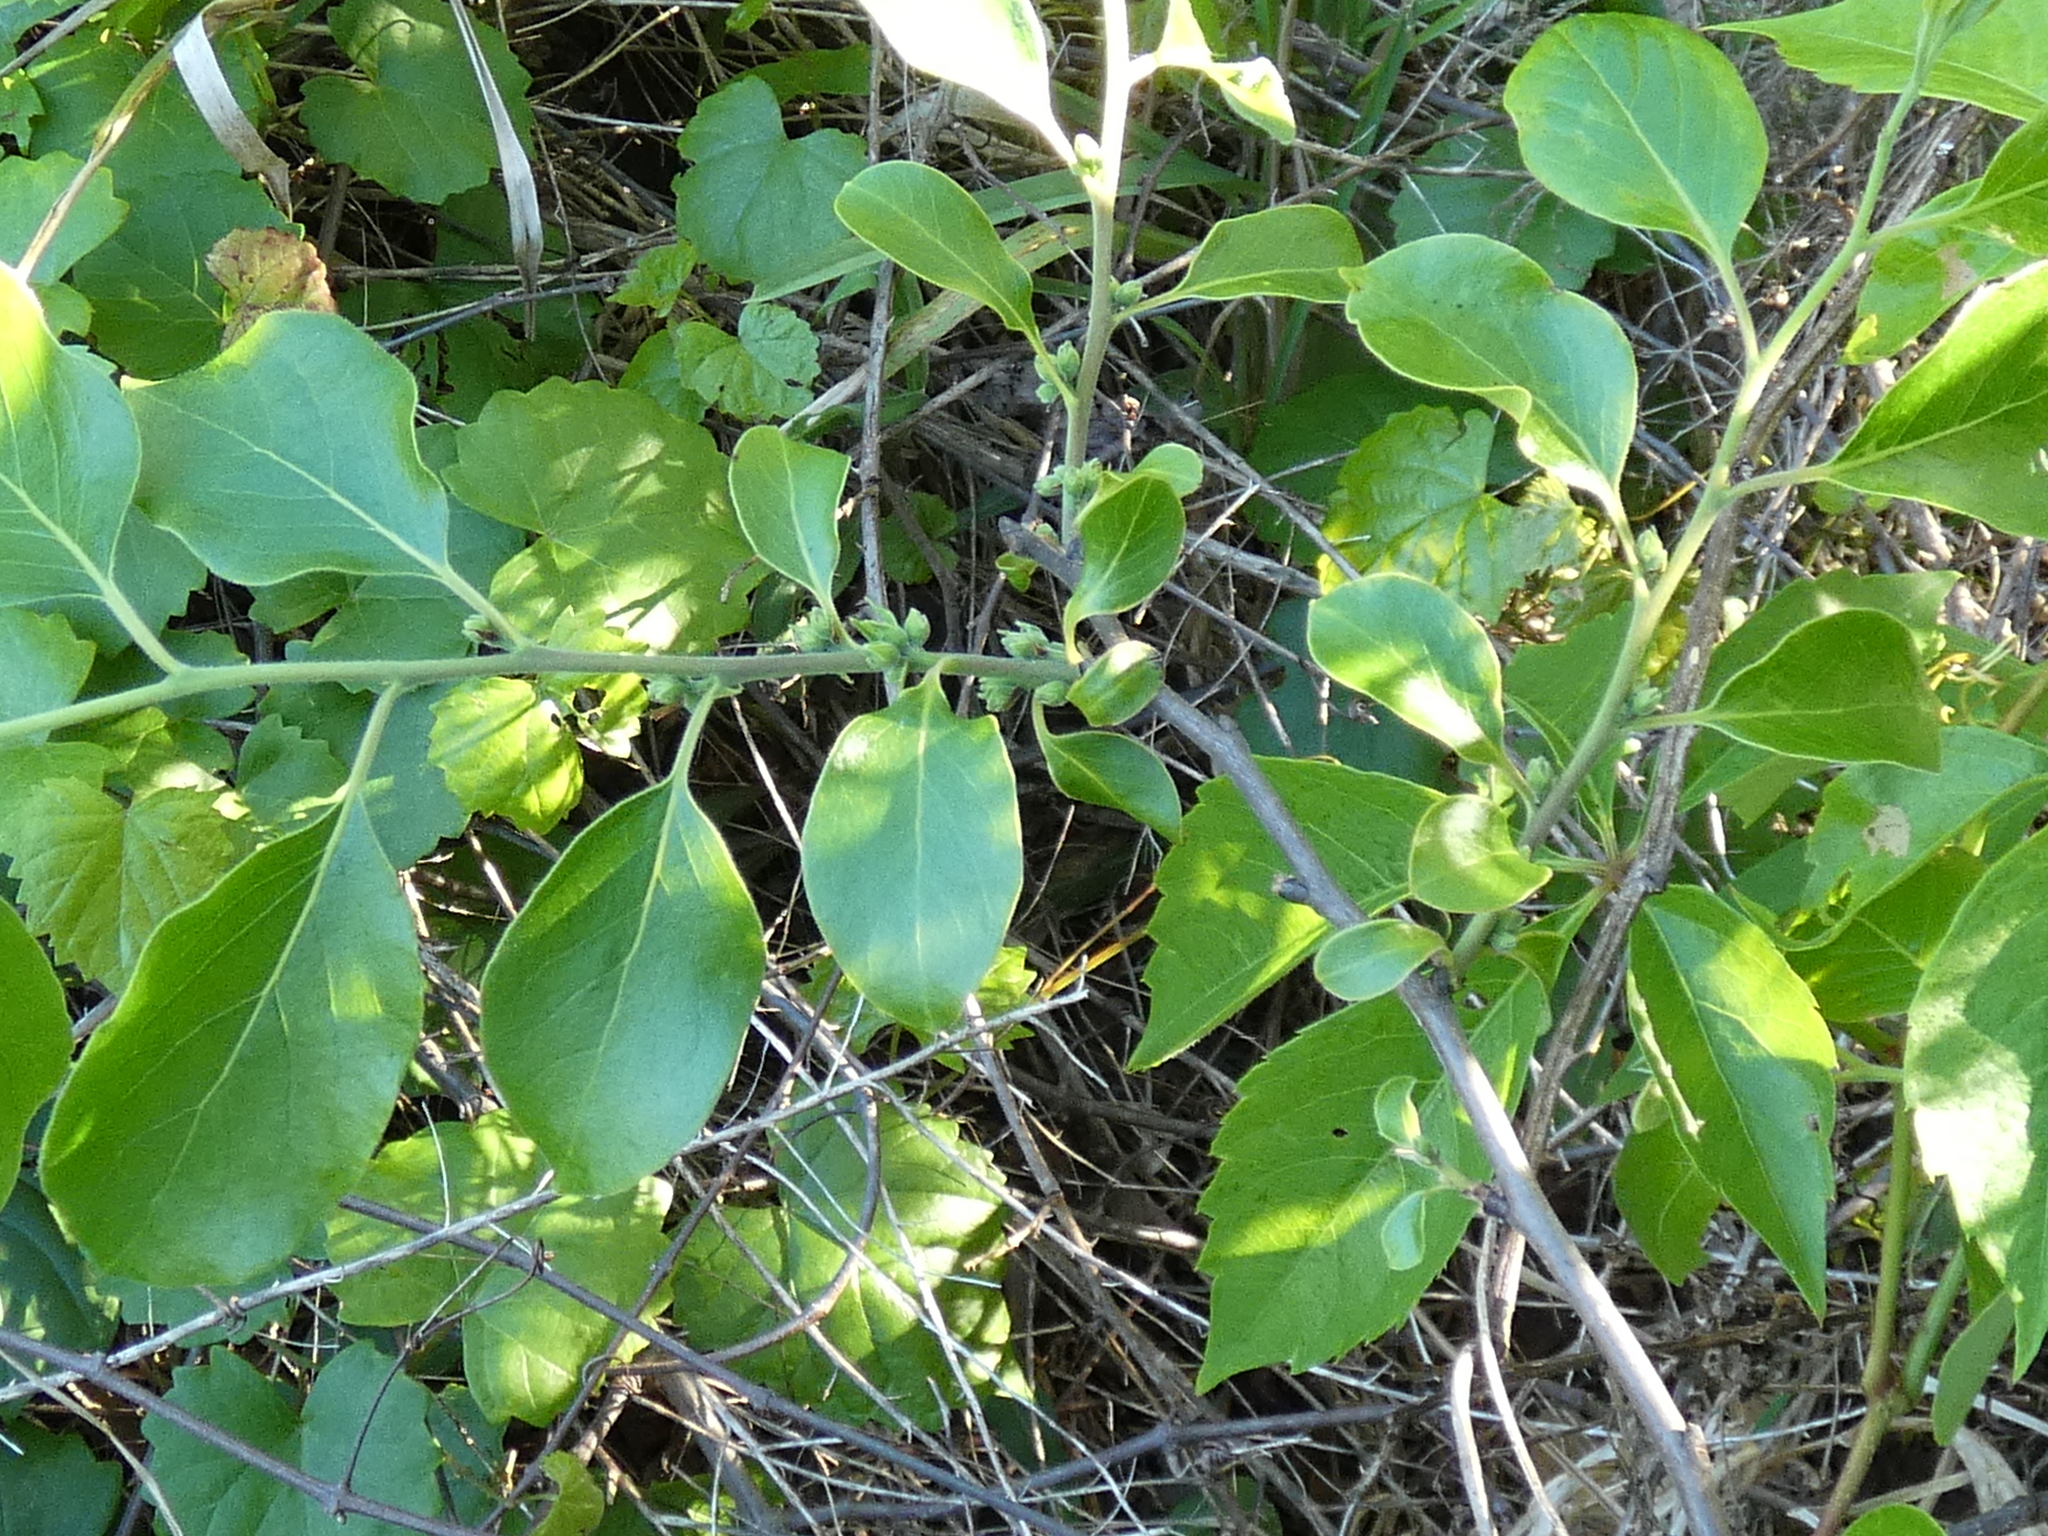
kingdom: Plantae
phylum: Tracheophyta
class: Magnoliopsida
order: Ericales
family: Ebenaceae
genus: Diospyros
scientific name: Diospyros virginiana
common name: Persimmon
